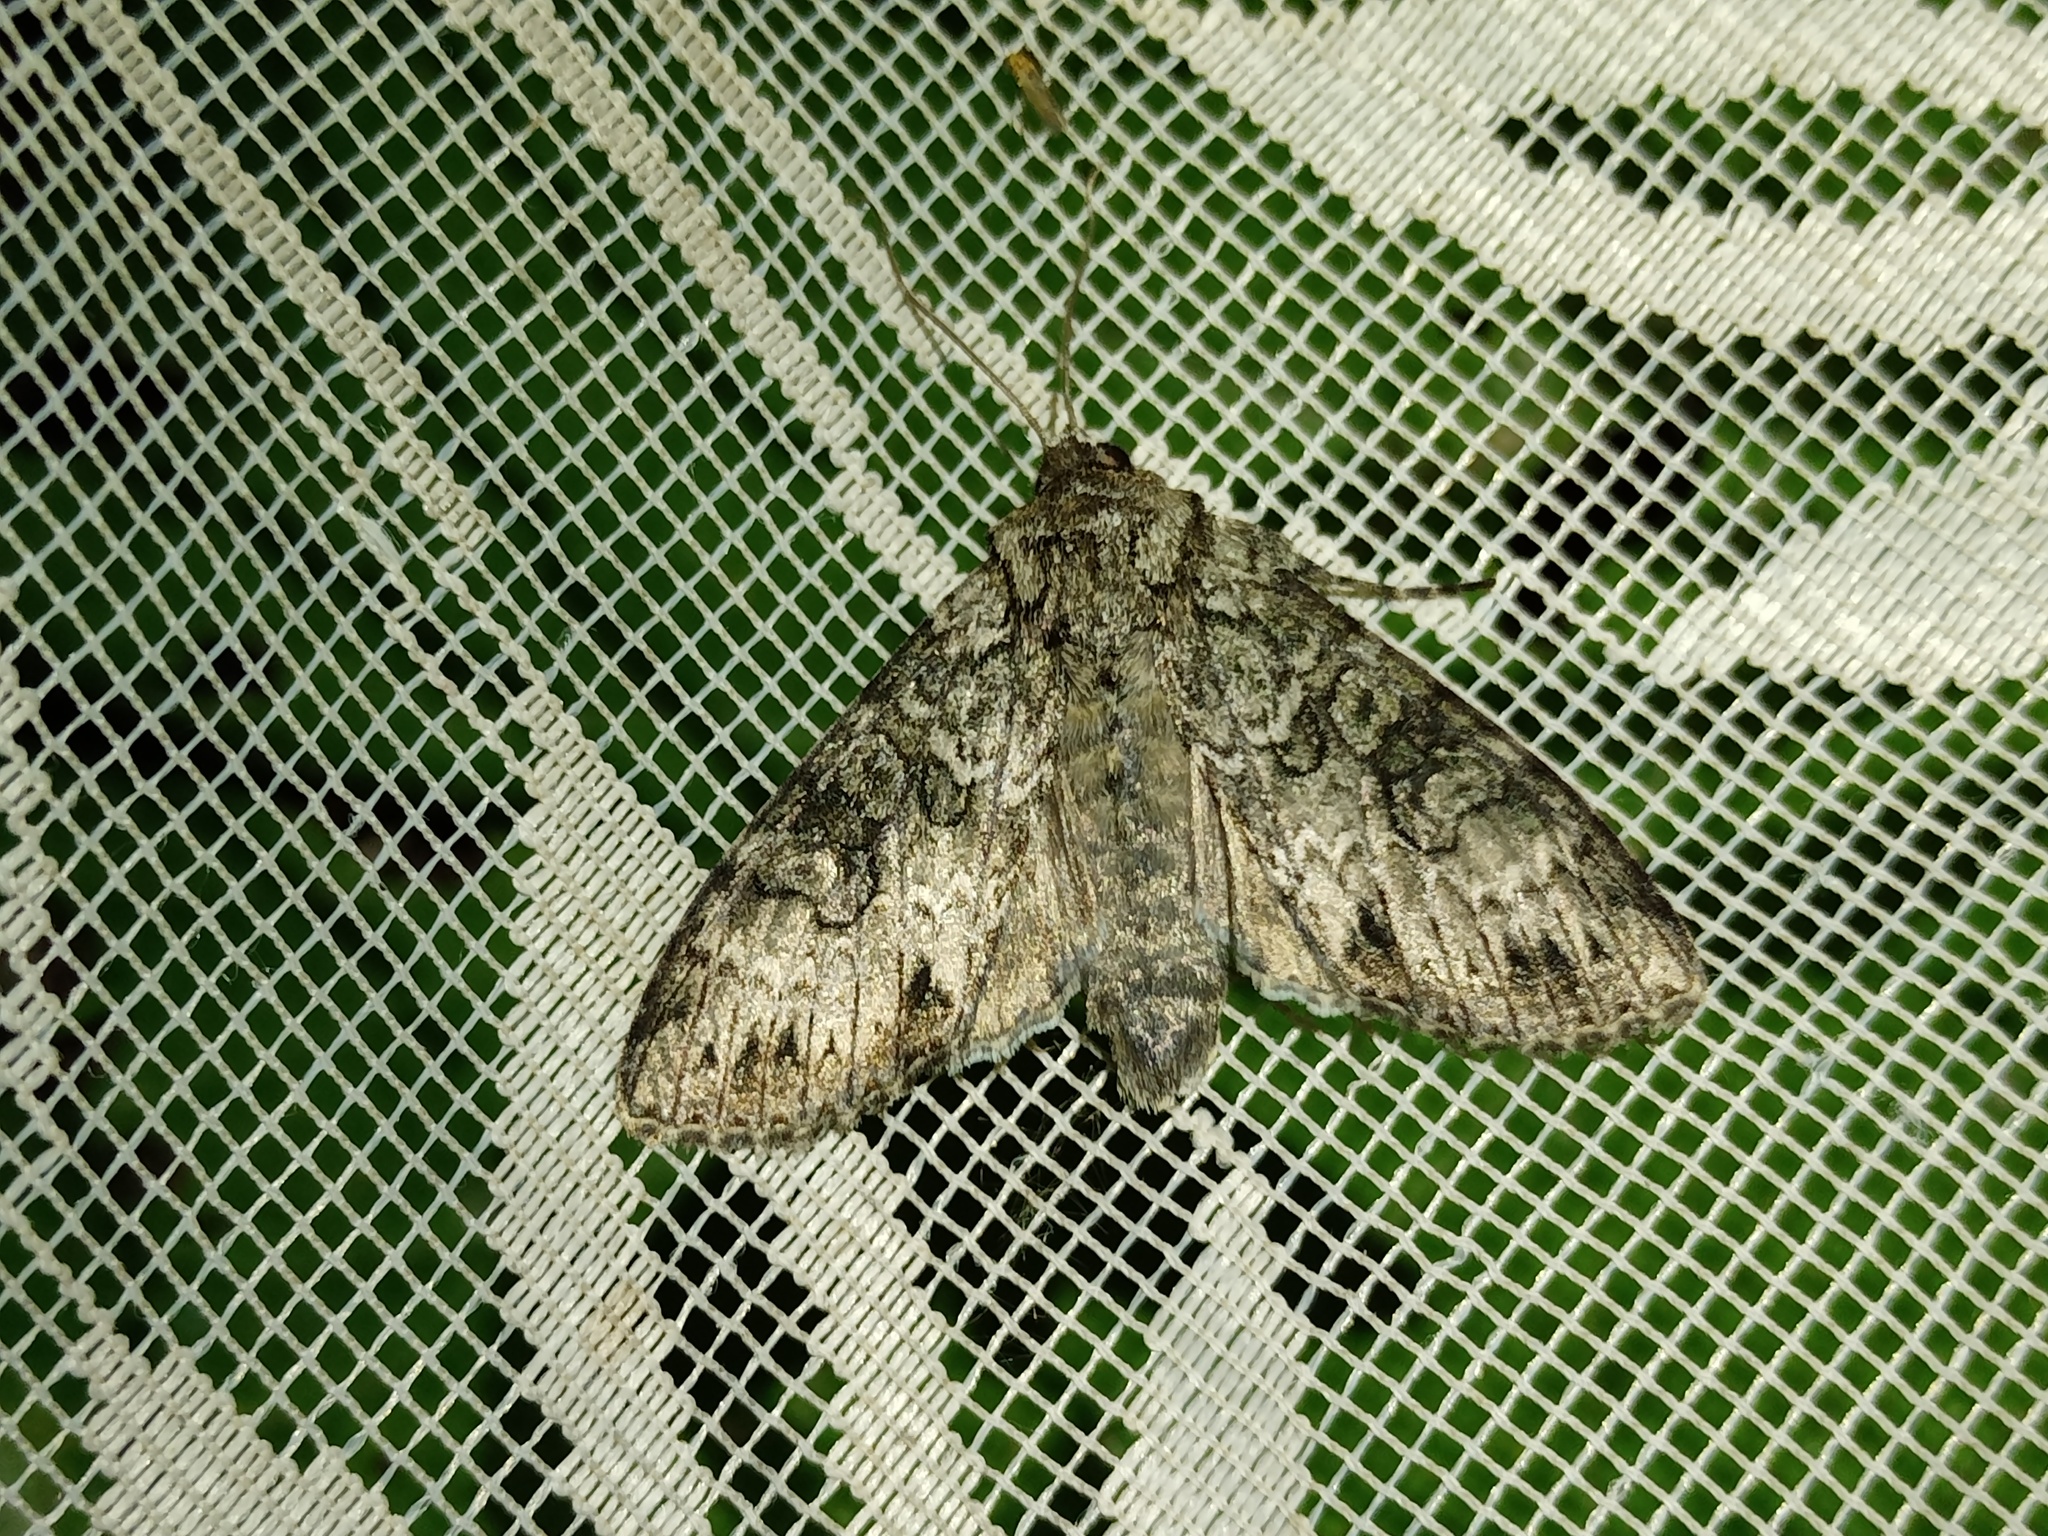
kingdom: Animalia
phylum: Arthropoda
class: Insecta
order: Lepidoptera
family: Noctuidae
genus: Polia
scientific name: Polia nebulosa
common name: Grey arches
